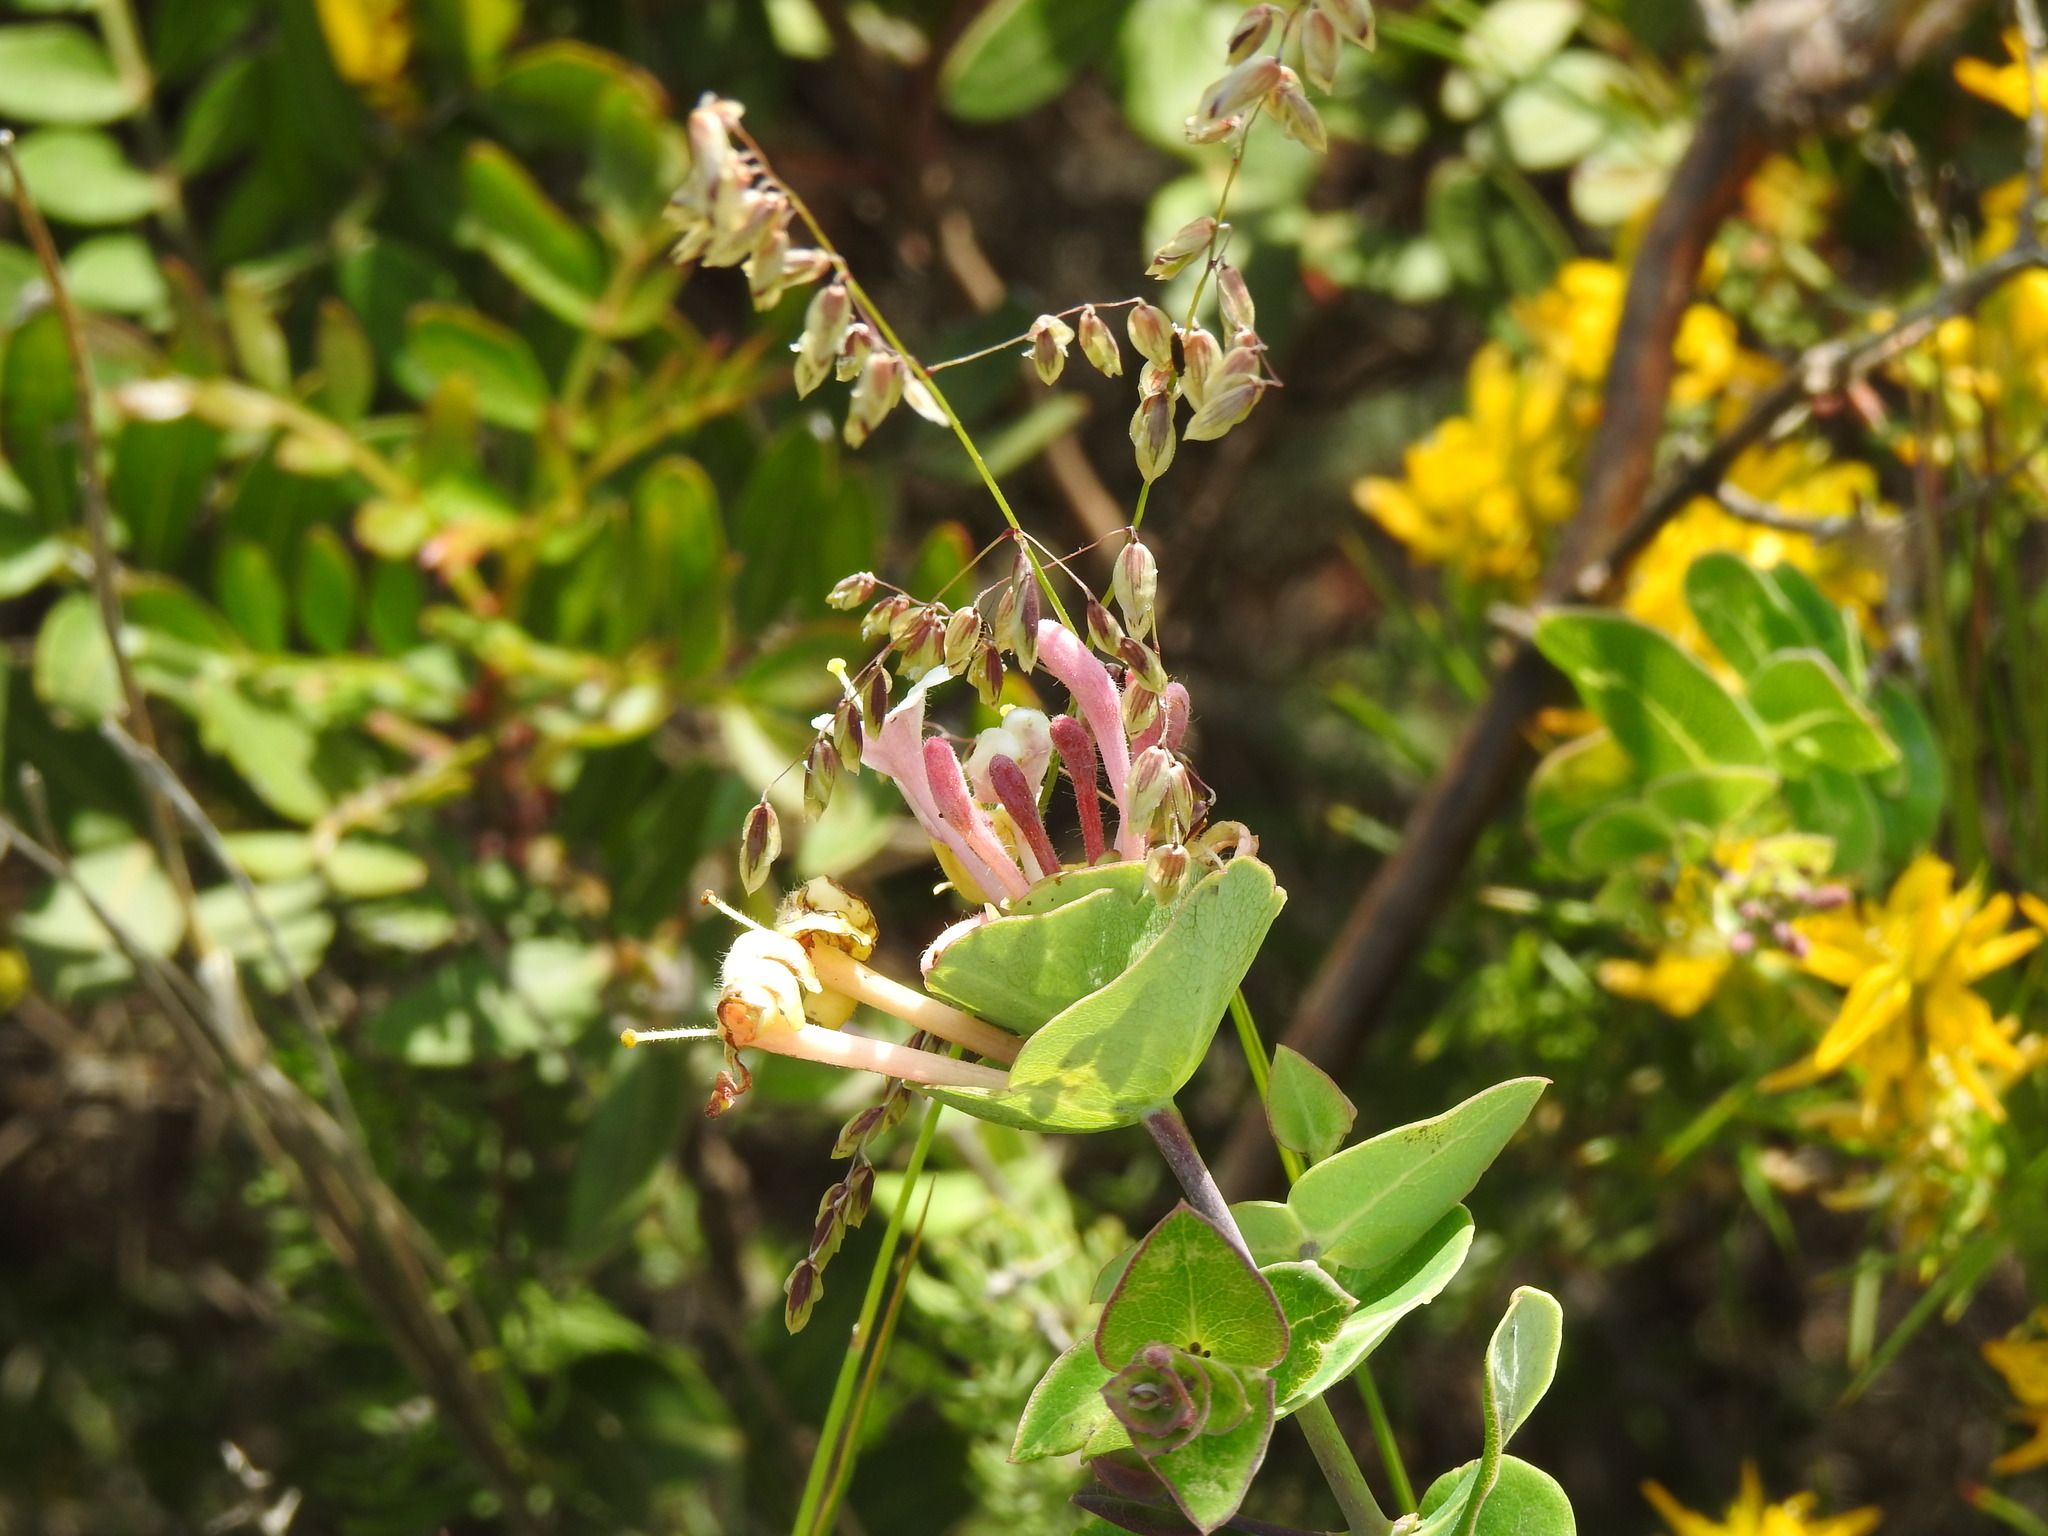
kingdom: Plantae
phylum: Tracheophyta
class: Magnoliopsida
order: Dipsacales
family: Caprifoliaceae
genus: Lonicera
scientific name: Lonicera implexa
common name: Minorca honeysuckle
